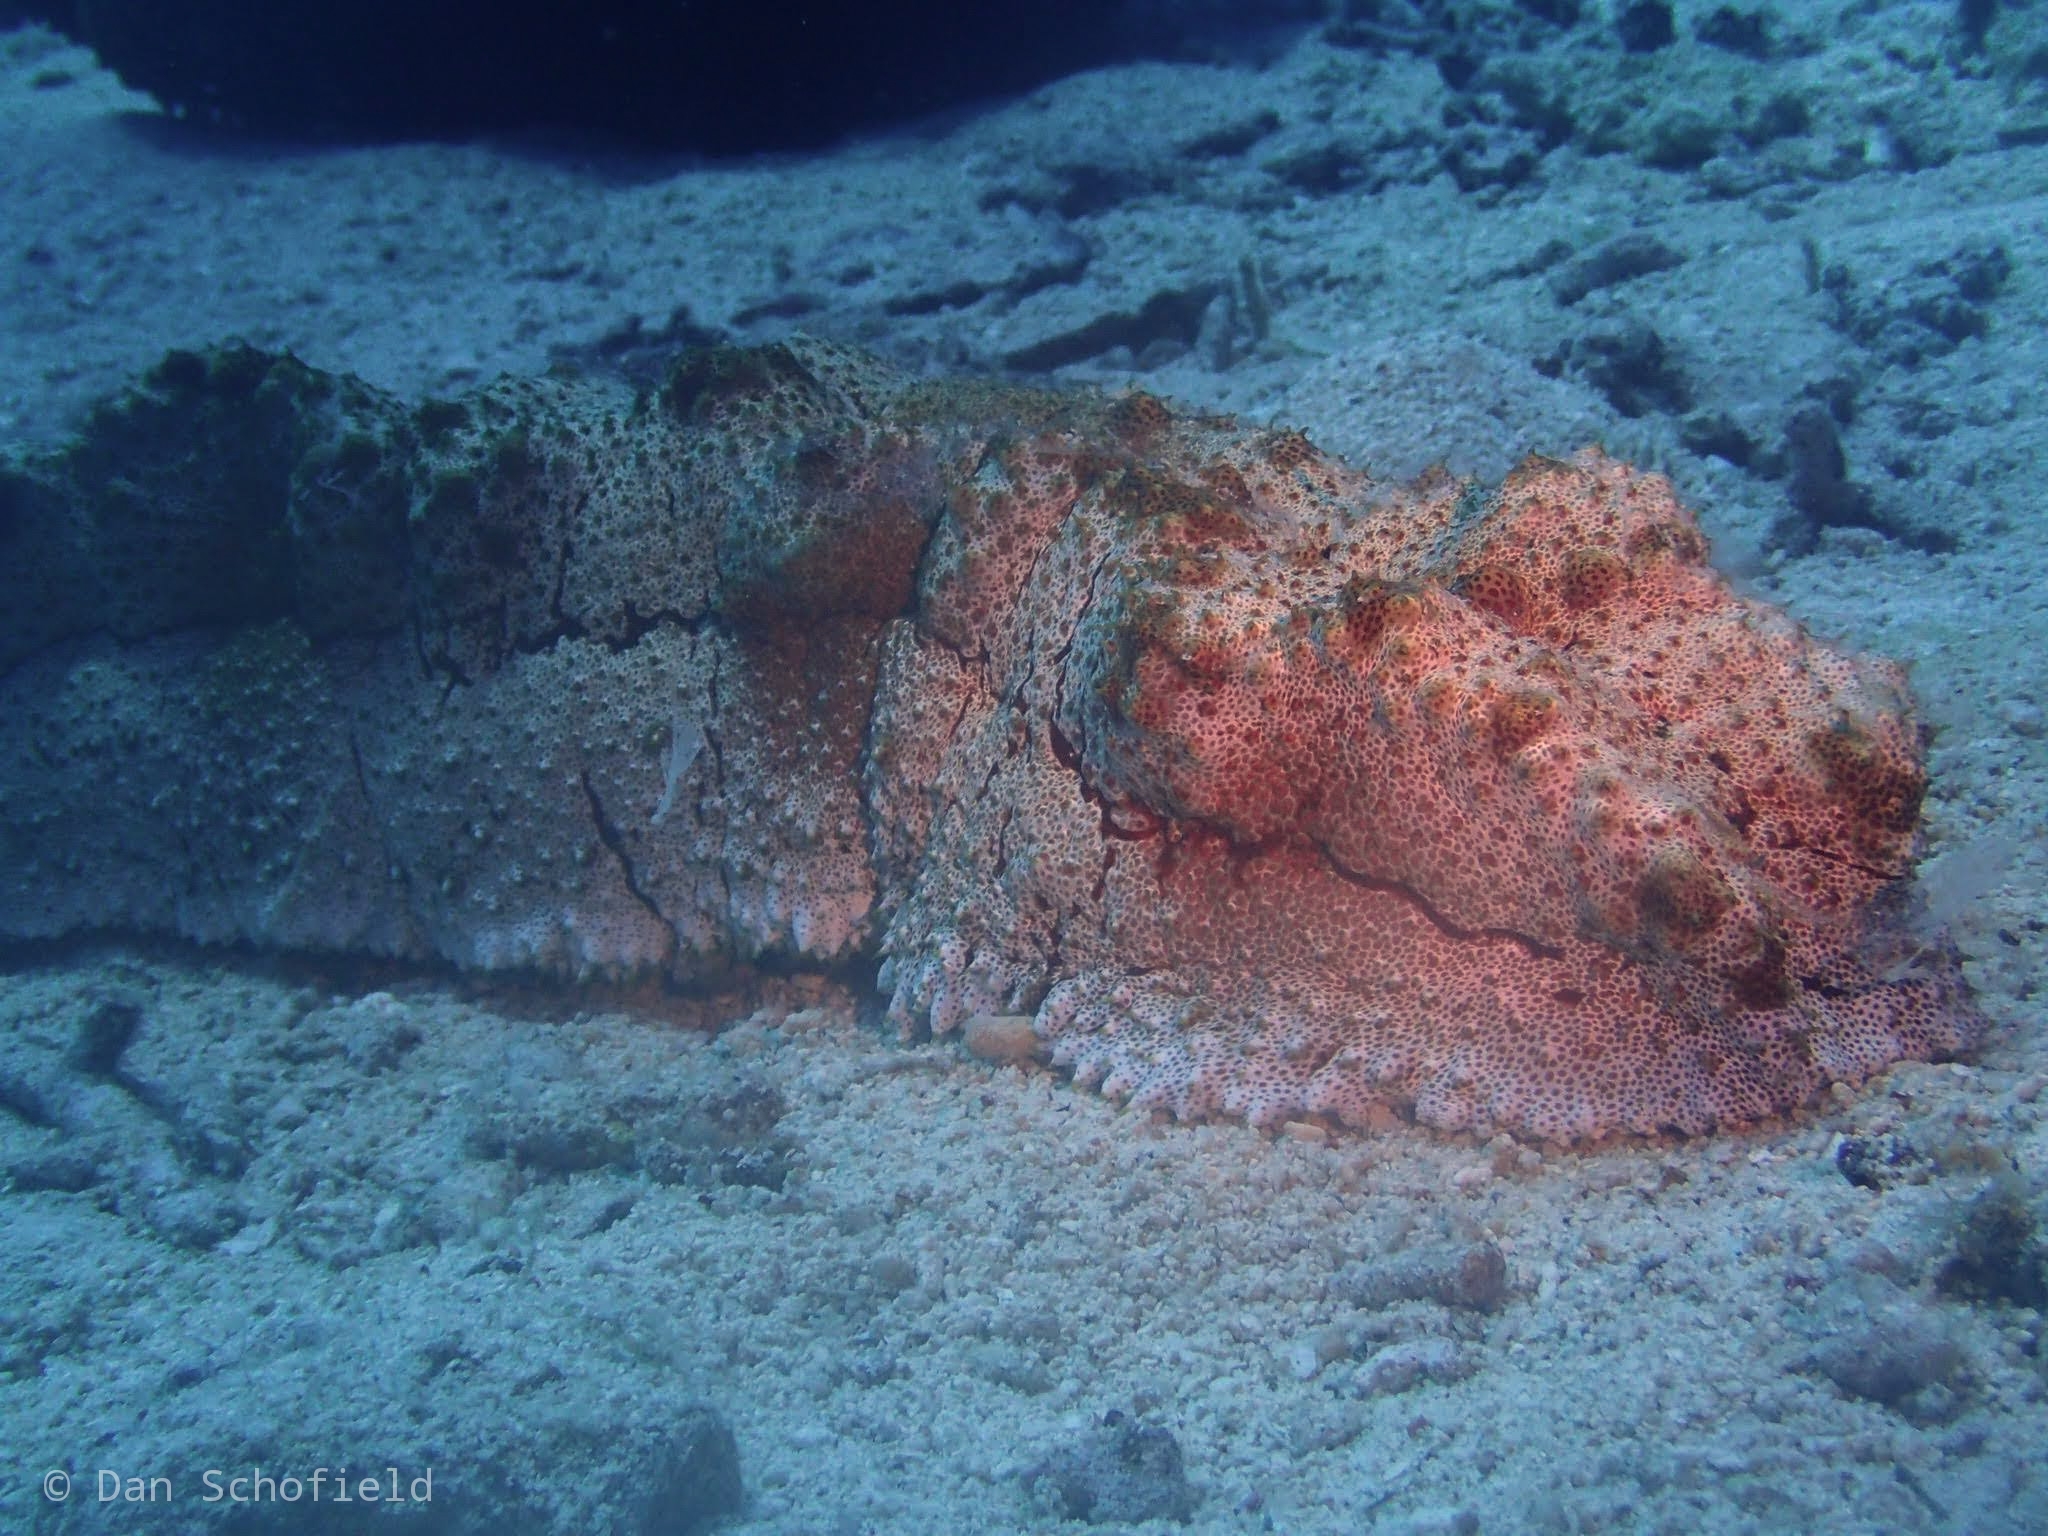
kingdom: Animalia
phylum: Echinodermata
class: Holothuroidea
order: Synallactida
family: Stichopodidae
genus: Thelenota
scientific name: Thelenota anax
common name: Amberfish
